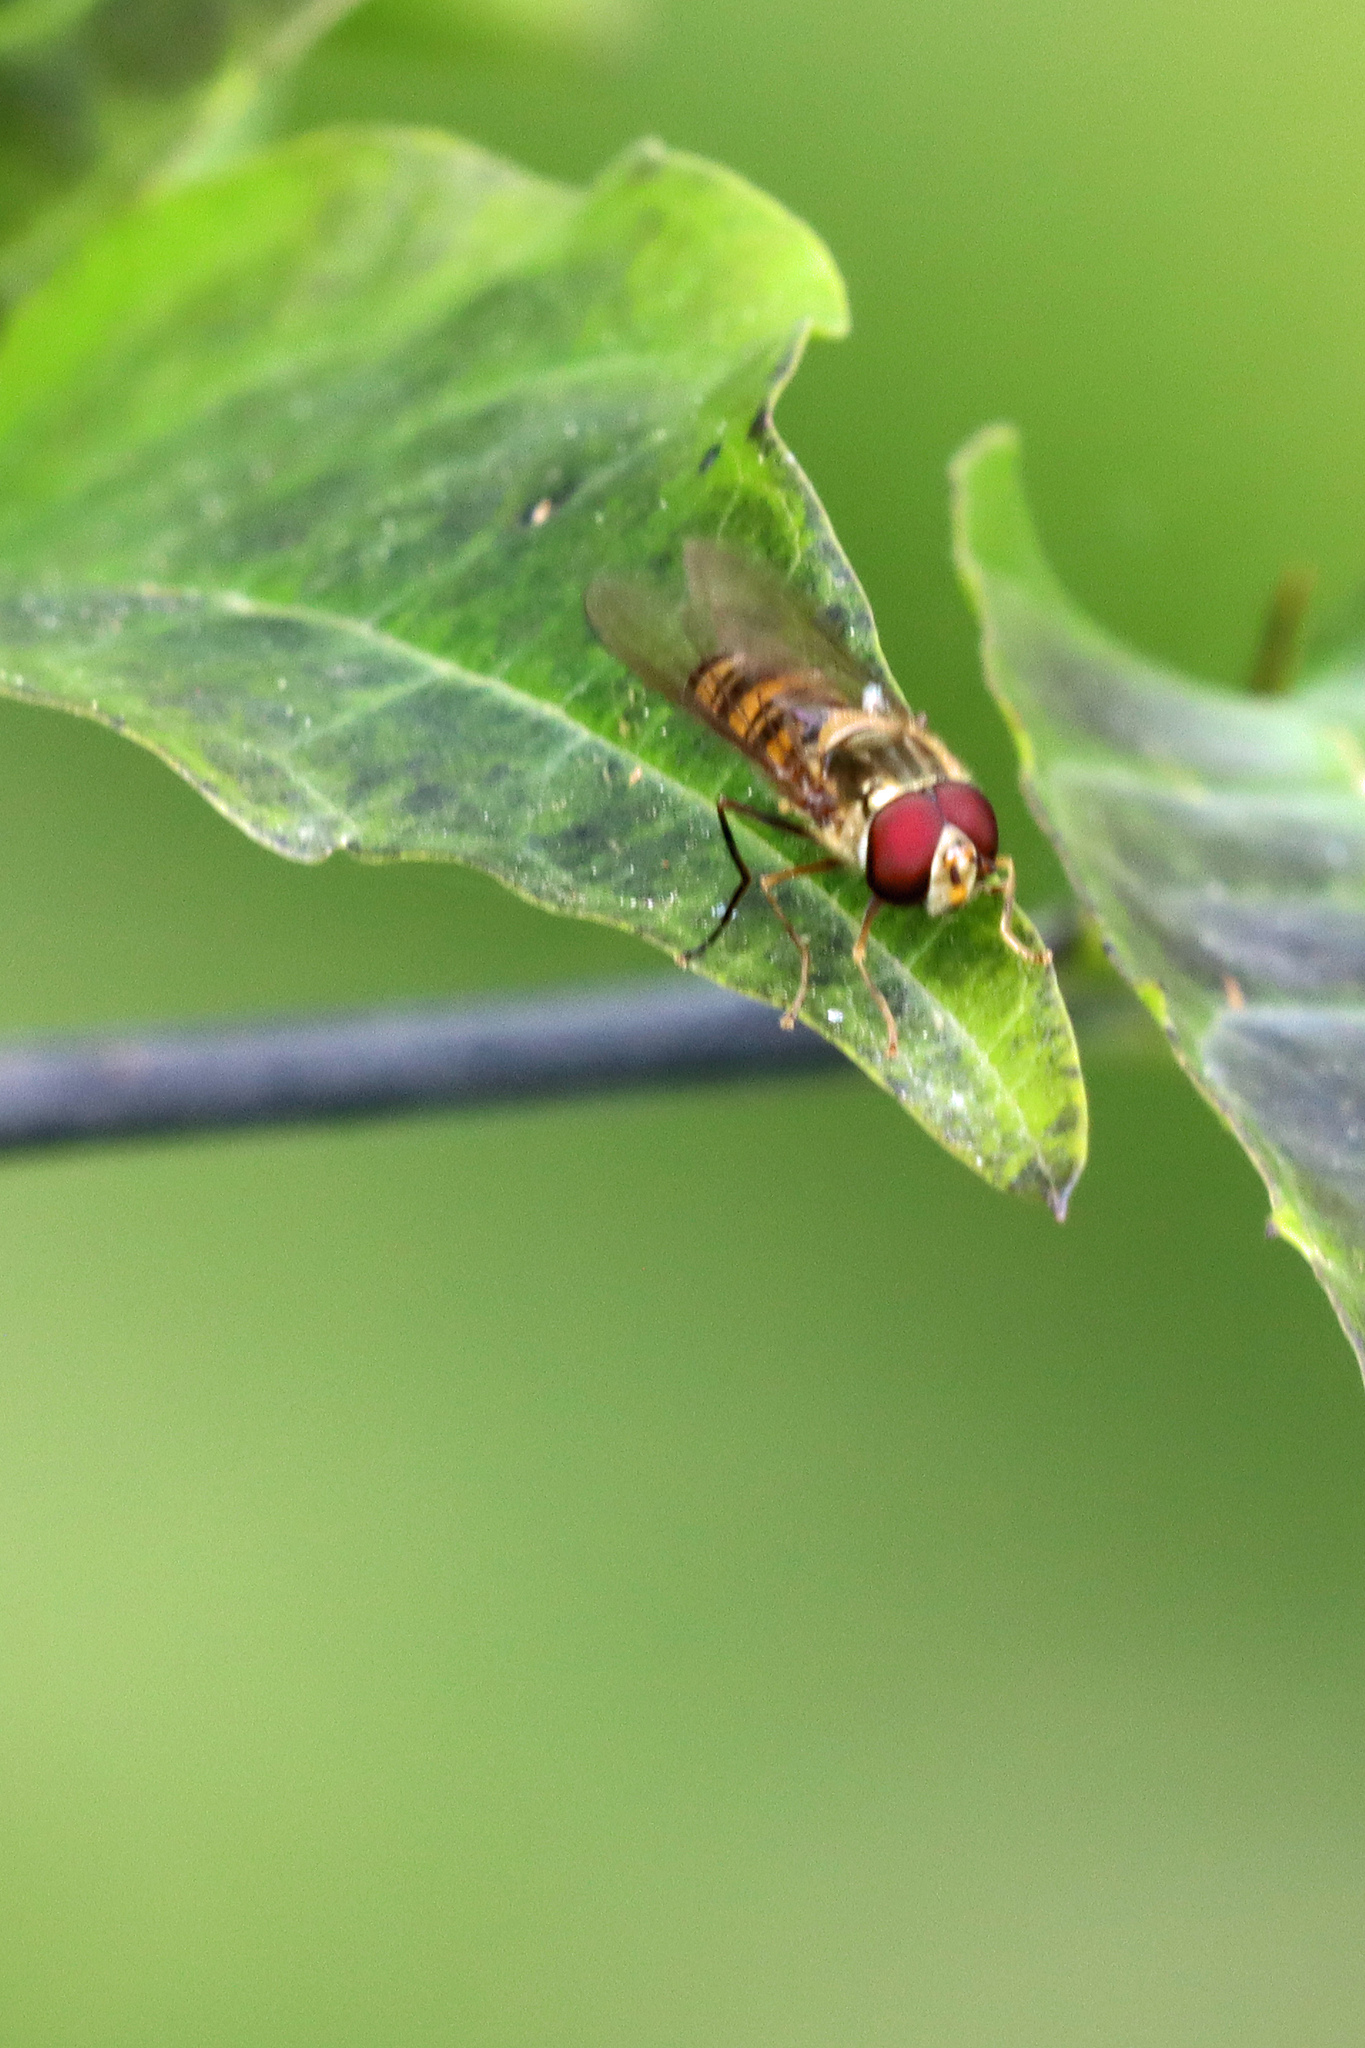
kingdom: Animalia
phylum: Arthropoda
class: Insecta
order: Diptera
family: Syrphidae
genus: Episyrphus
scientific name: Episyrphus balteatus
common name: Marmalade hoverfly
